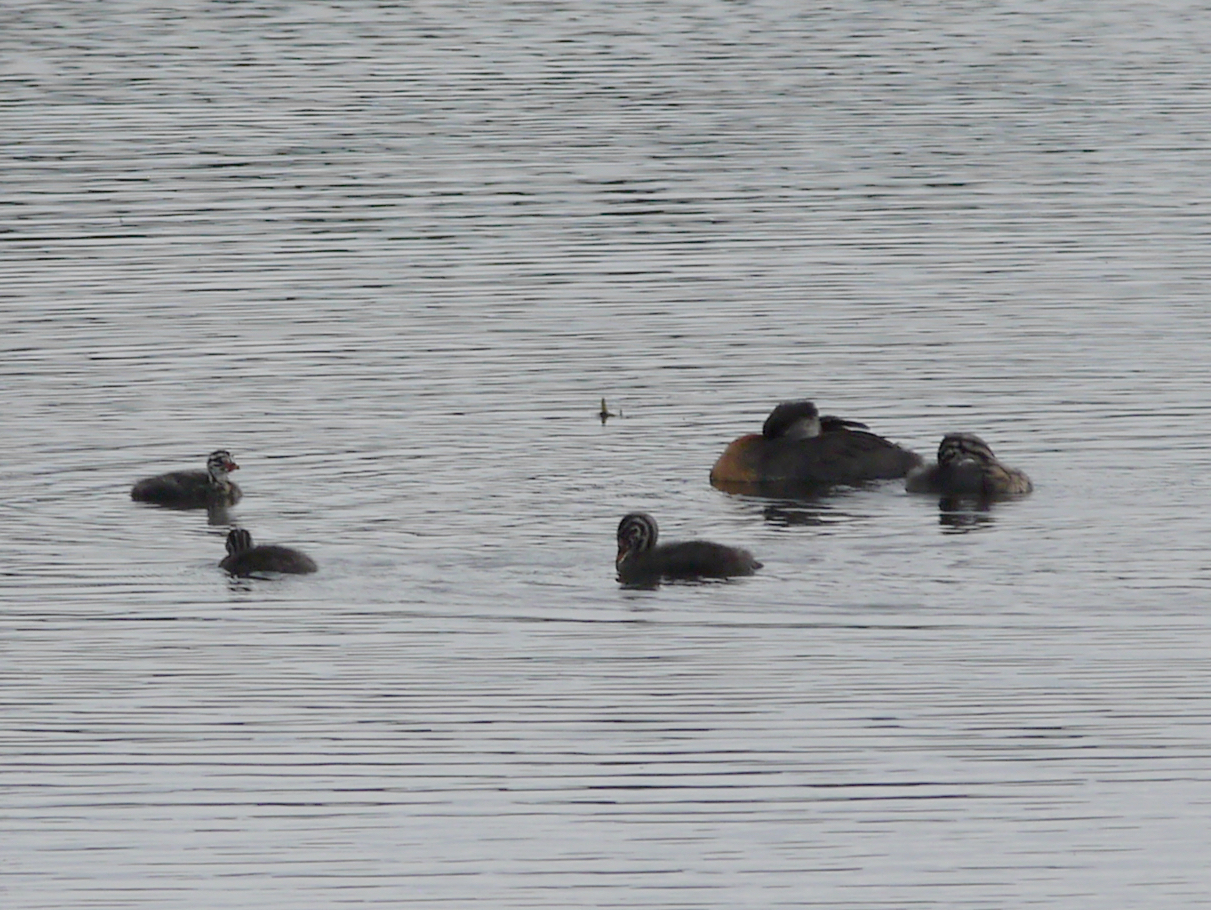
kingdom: Animalia
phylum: Chordata
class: Aves
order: Podicipediformes
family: Podicipedidae
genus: Podiceps
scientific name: Podiceps grisegena
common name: Red-necked grebe
